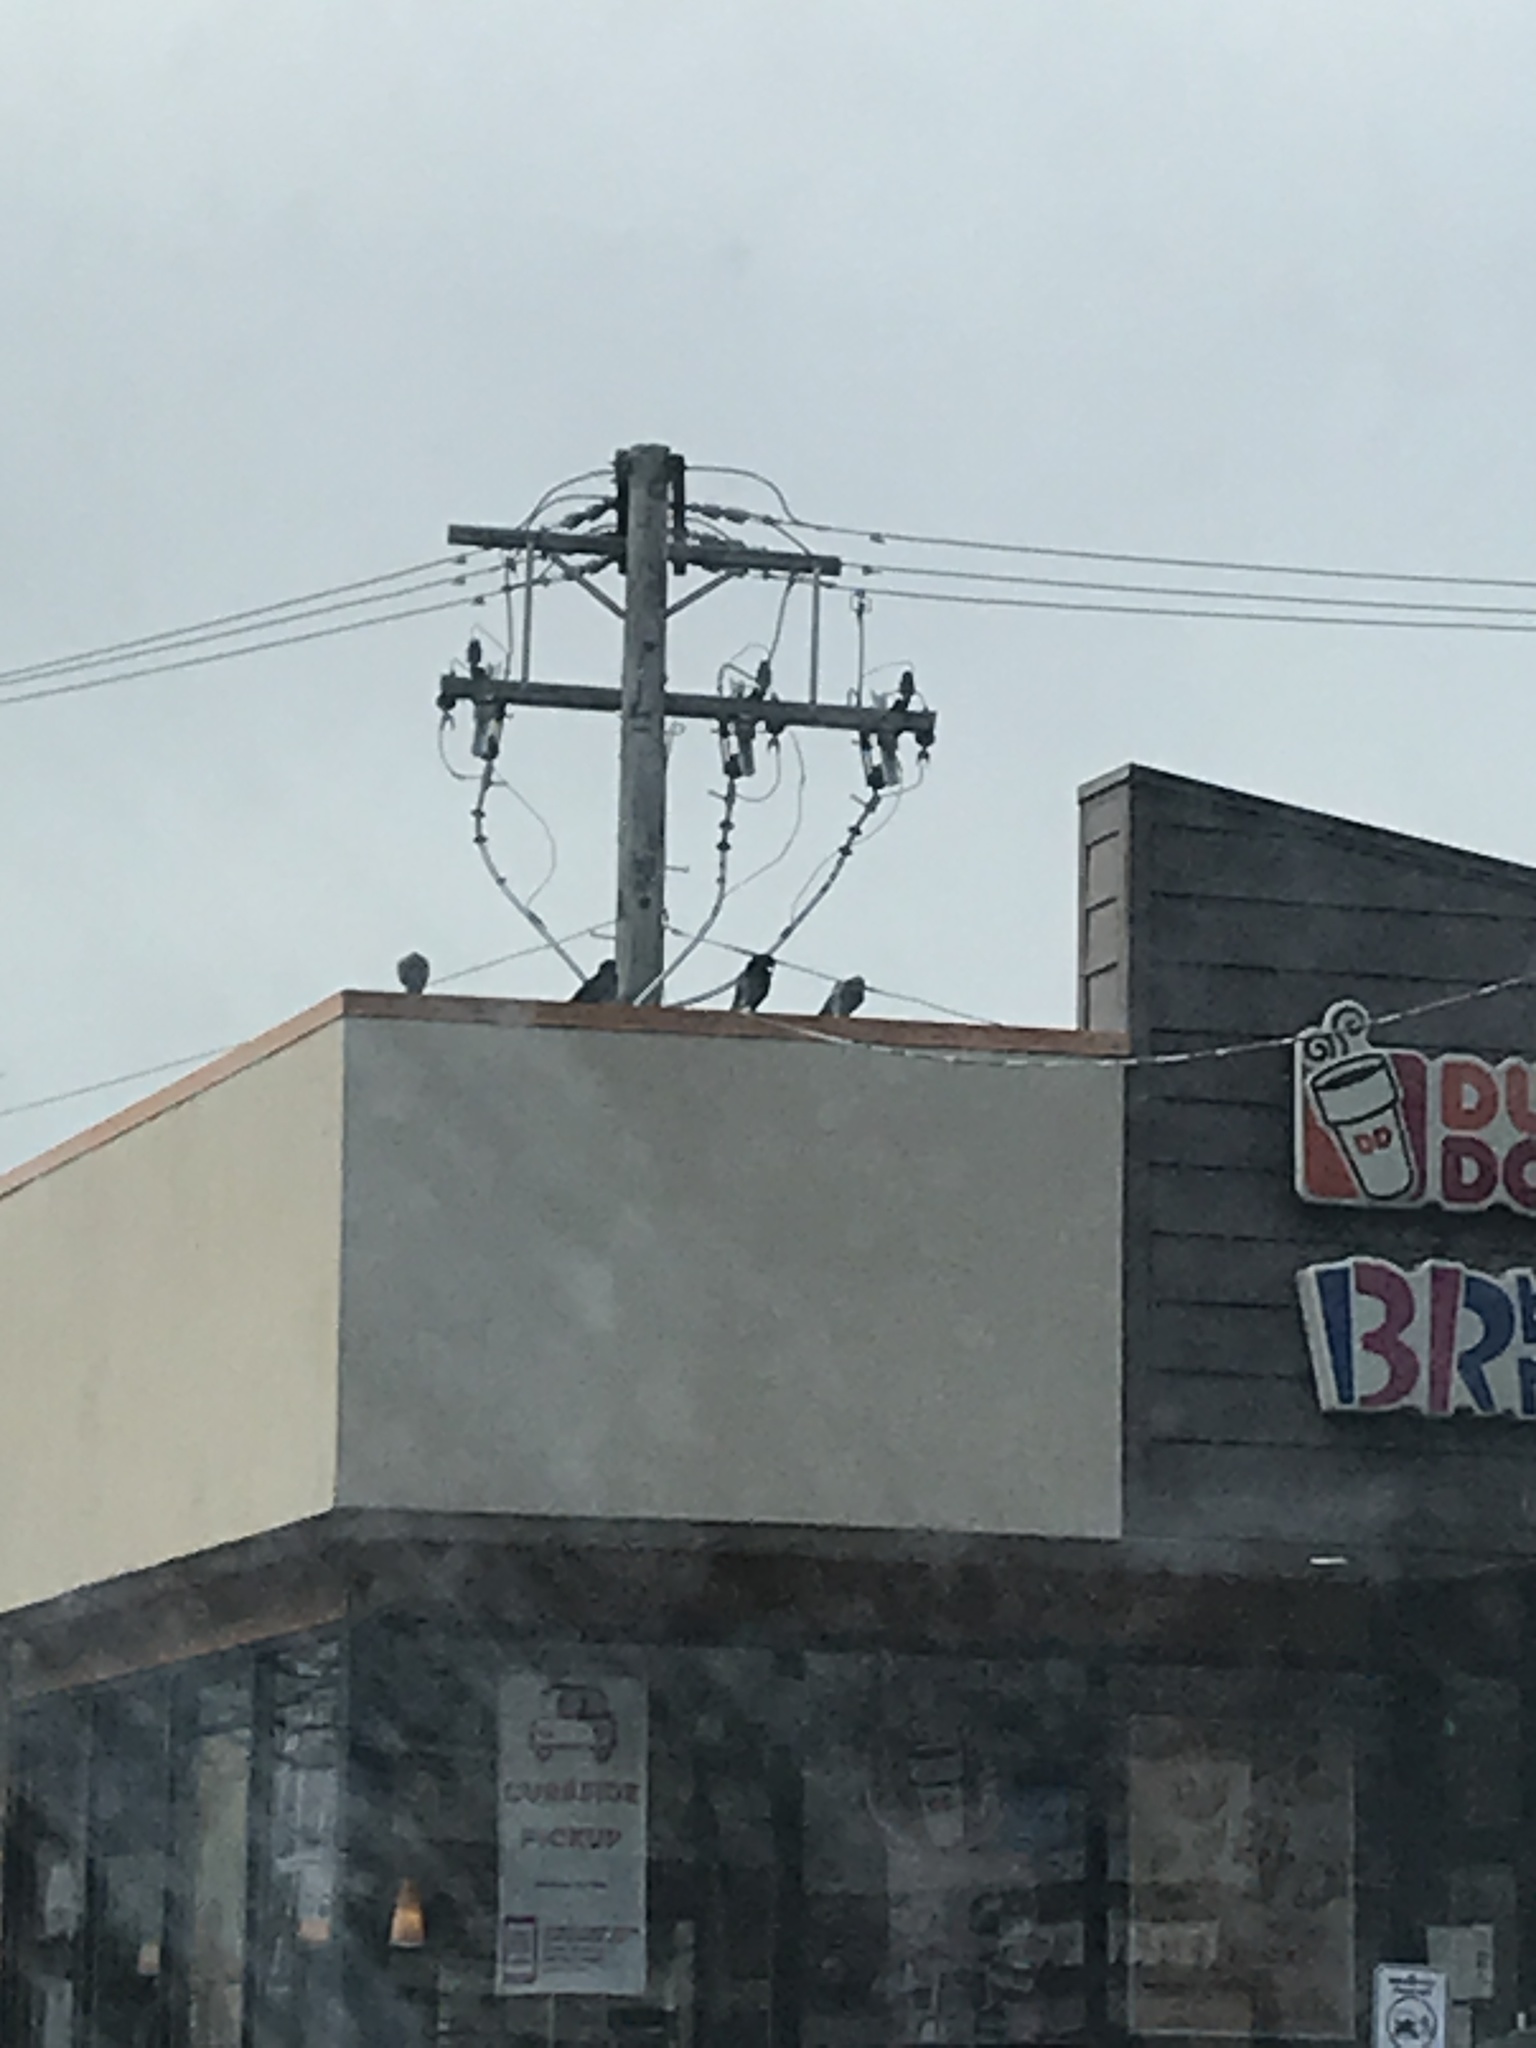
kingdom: Animalia
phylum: Chordata
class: Aves
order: Columbiformes
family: Columbidae
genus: Columba
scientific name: Columba livia
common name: Rock pigeon
